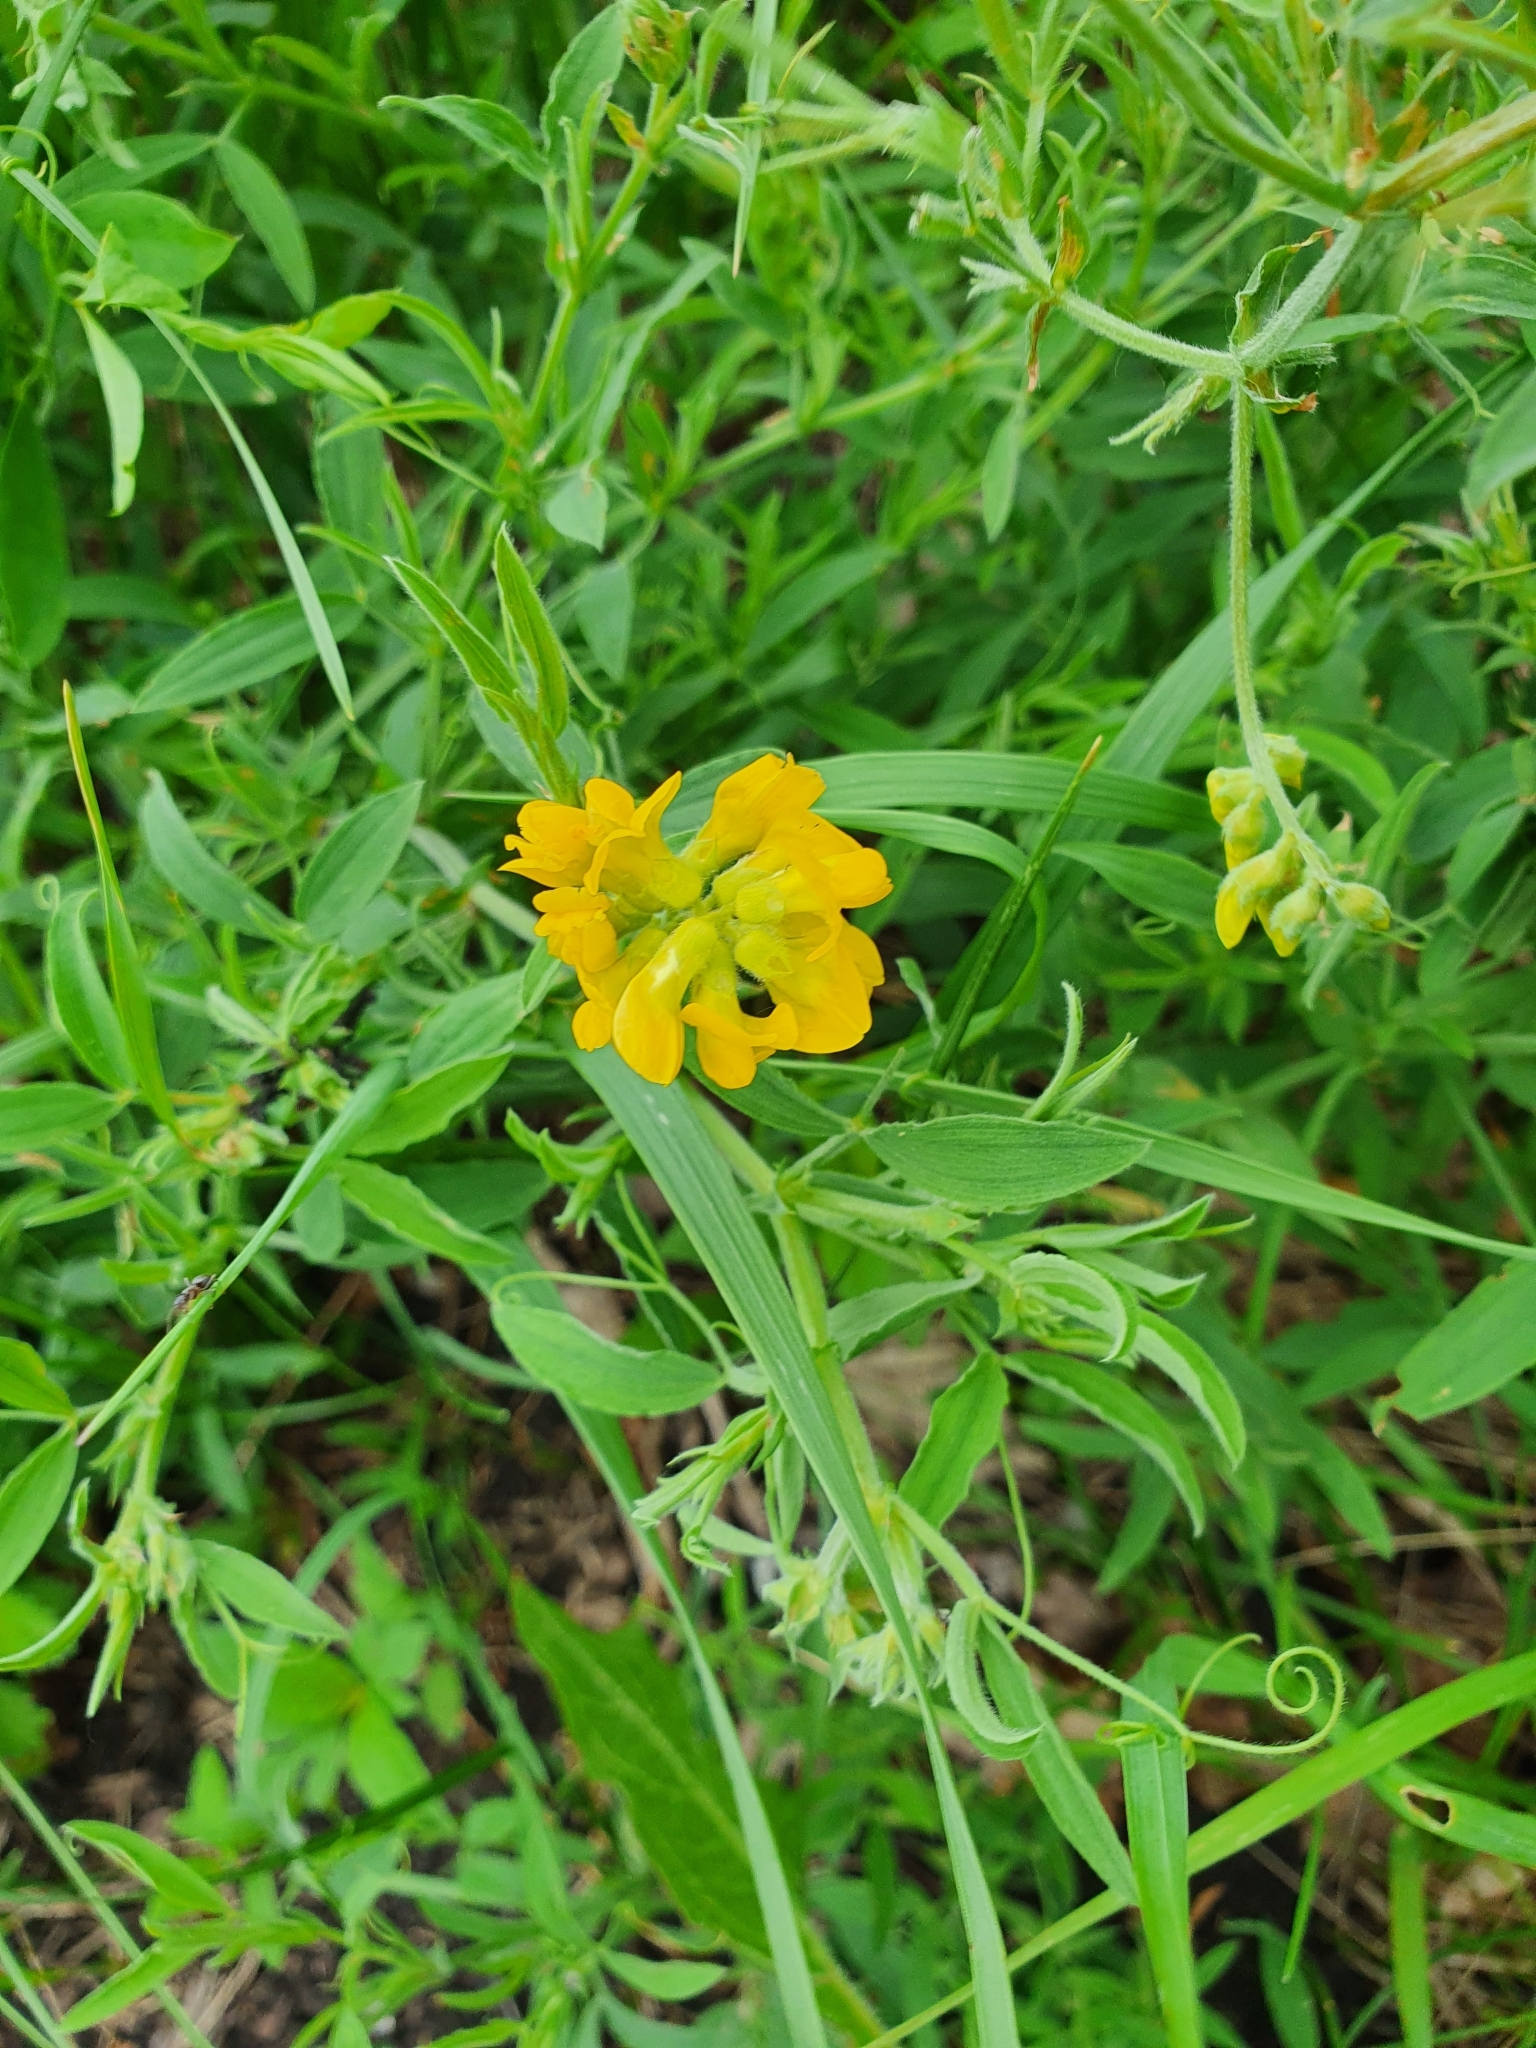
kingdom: Plantae
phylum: Tracheophyta
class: Magnoliopsida
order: Fabales
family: Fabaceae
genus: Lathyrus
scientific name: Lathyrus pratensis
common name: Meadow vetchling
